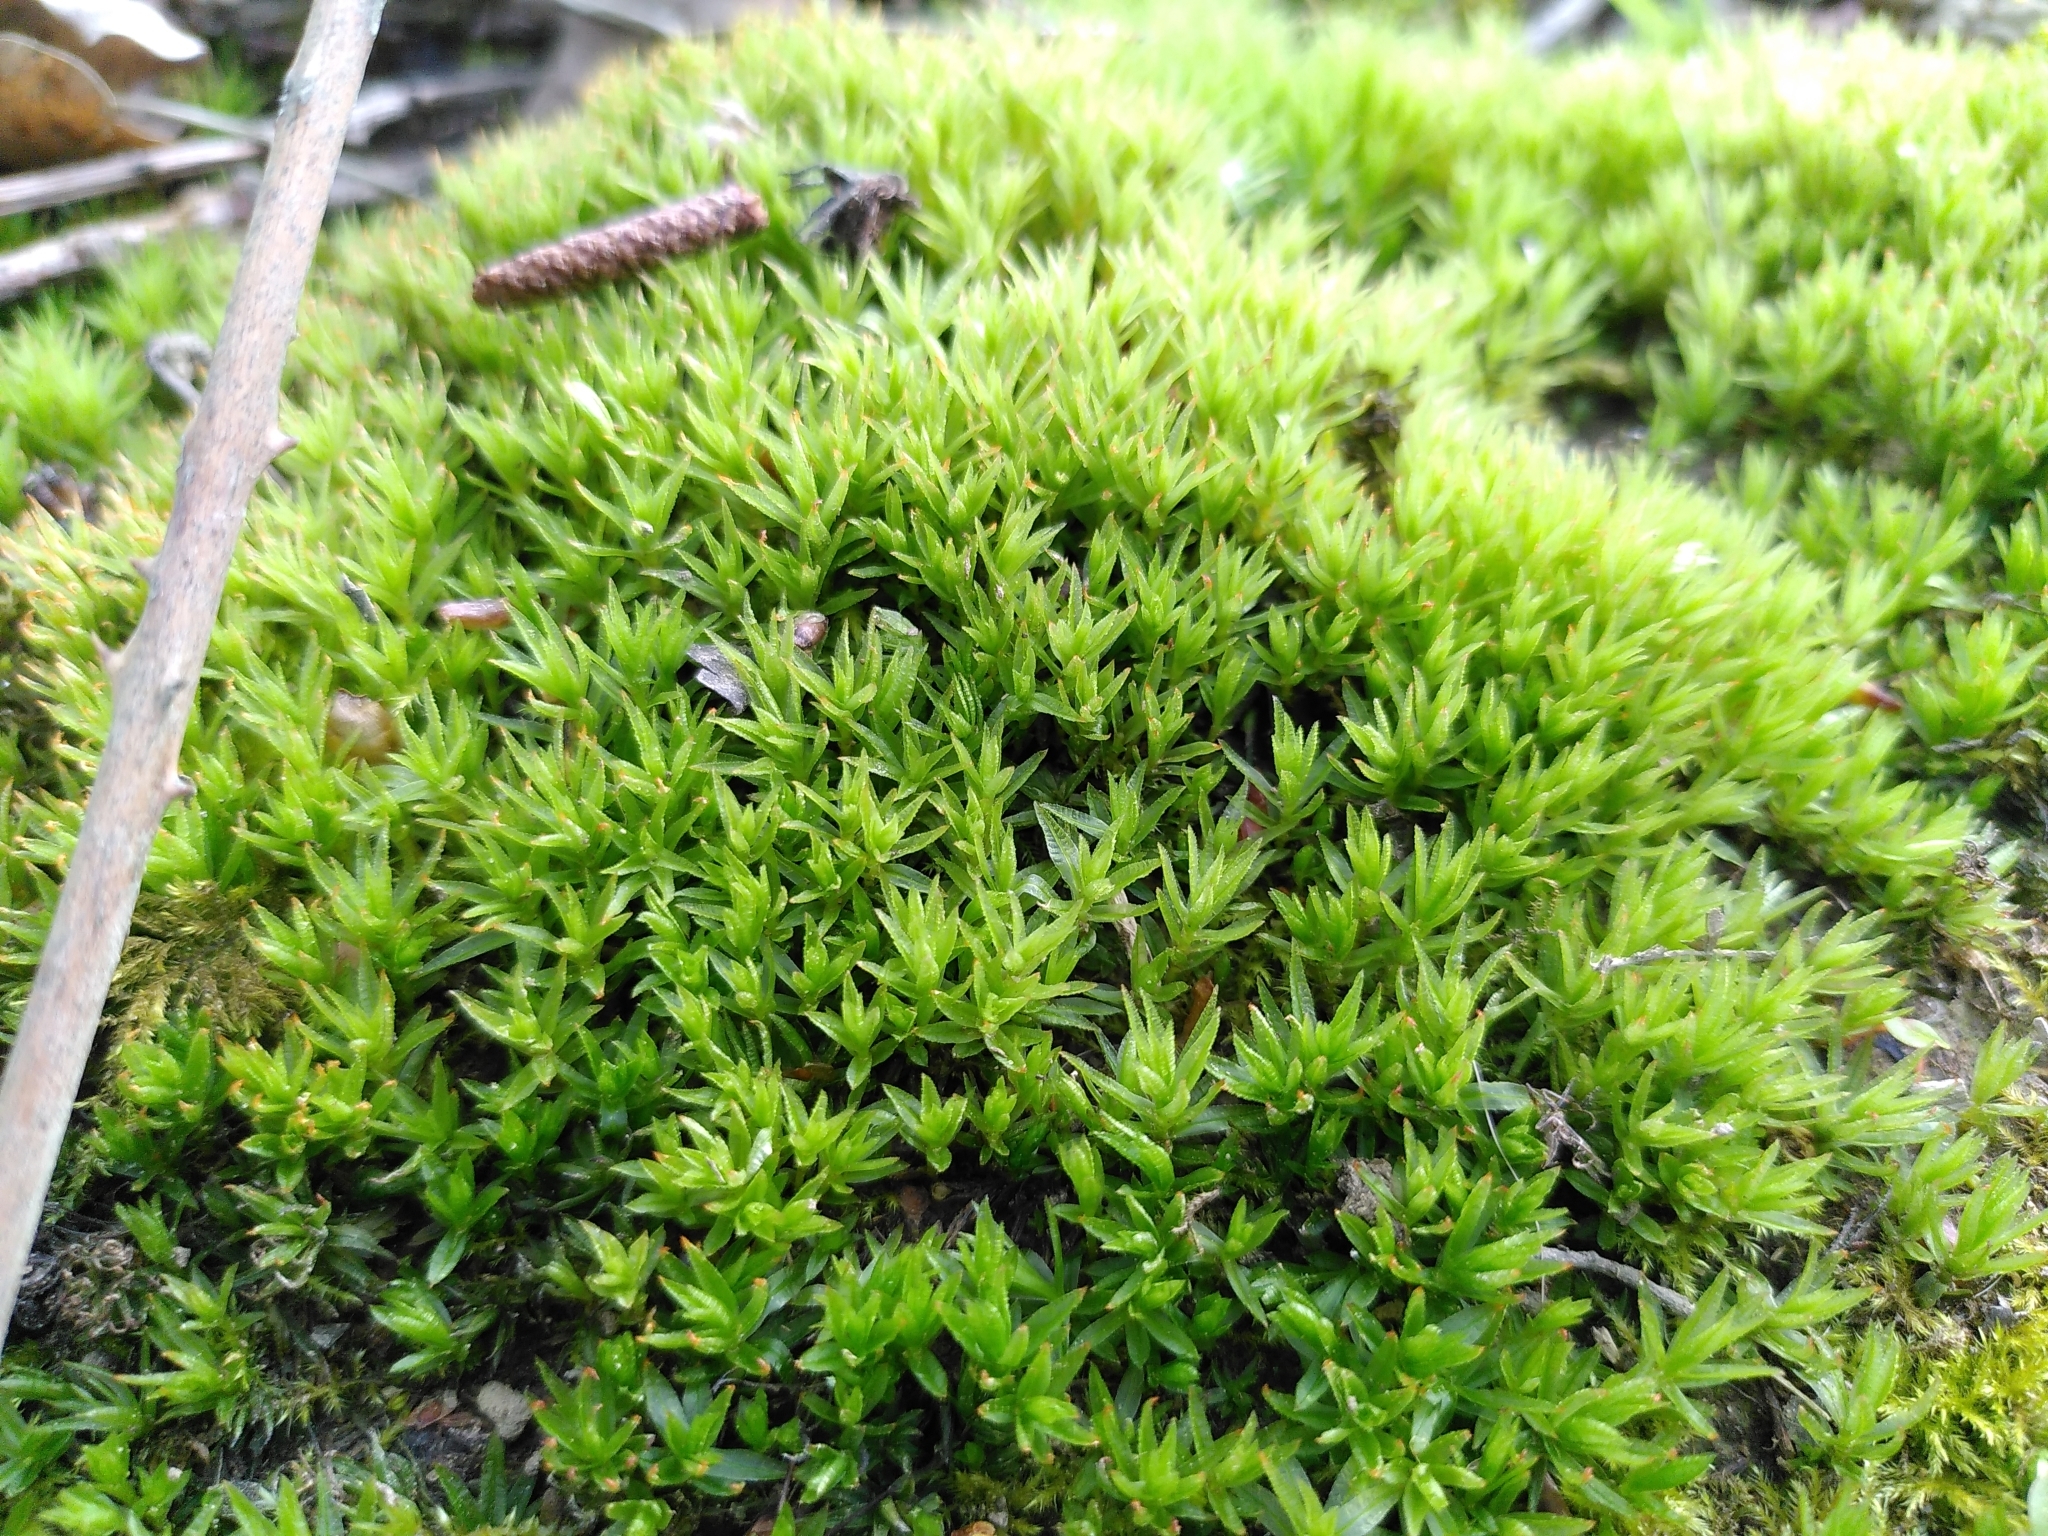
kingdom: Plantae
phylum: Bryophyta
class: Polytrichopsida
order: Polytrichales
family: Polytrichaceae
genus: Atrichum
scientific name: Atrichum undulatum
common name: Common smoothcap
